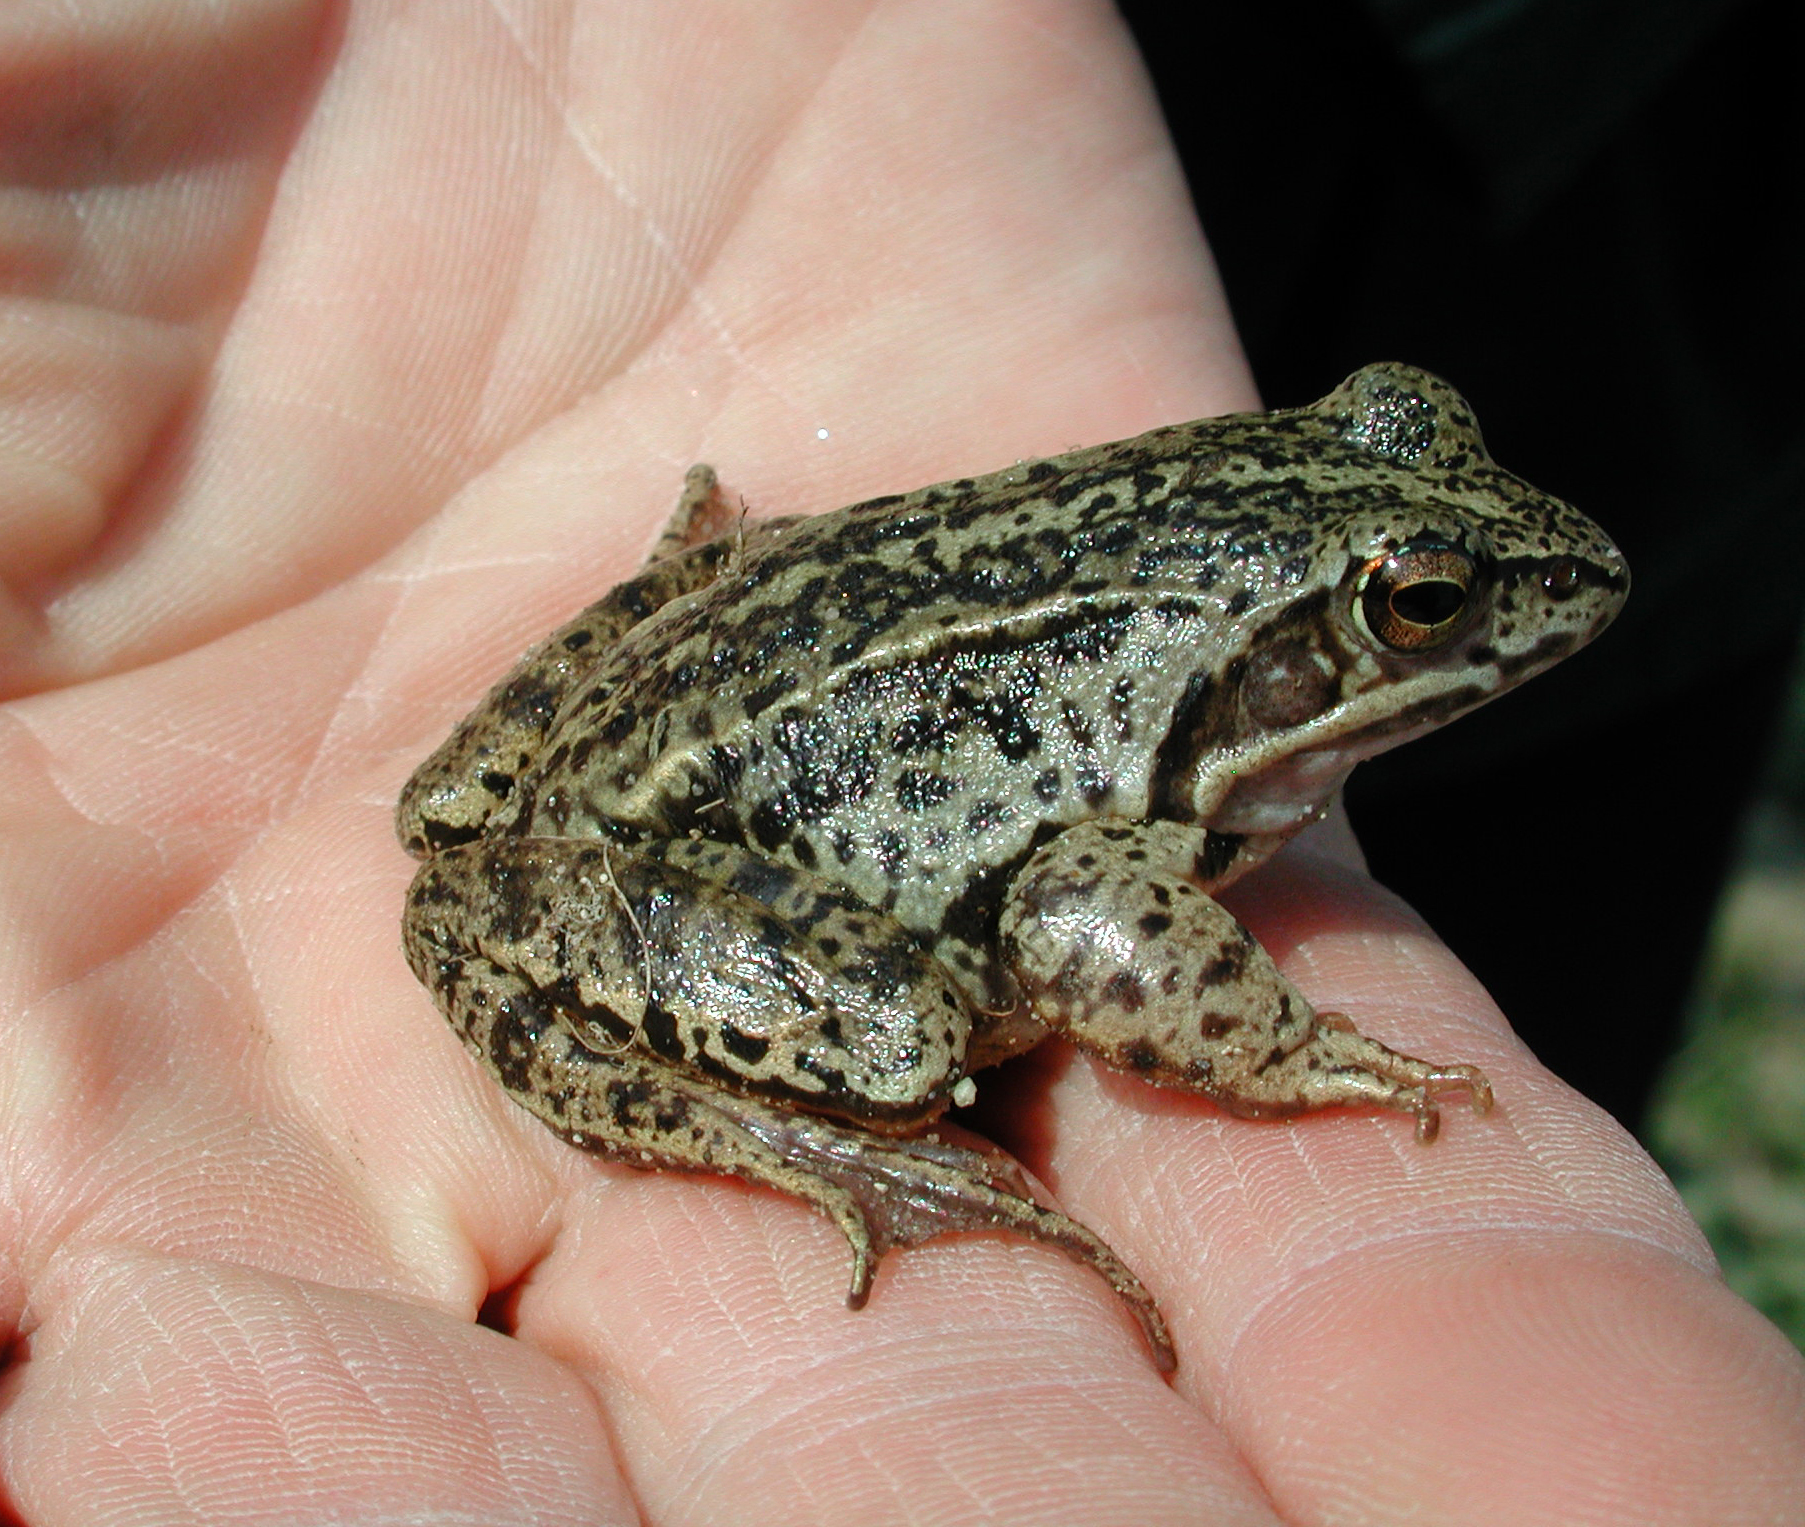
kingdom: Animalia
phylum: Chordata
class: Amphibia
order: Anura
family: Ranidae
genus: Rana
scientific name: Rana arvalis
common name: Moor frog
